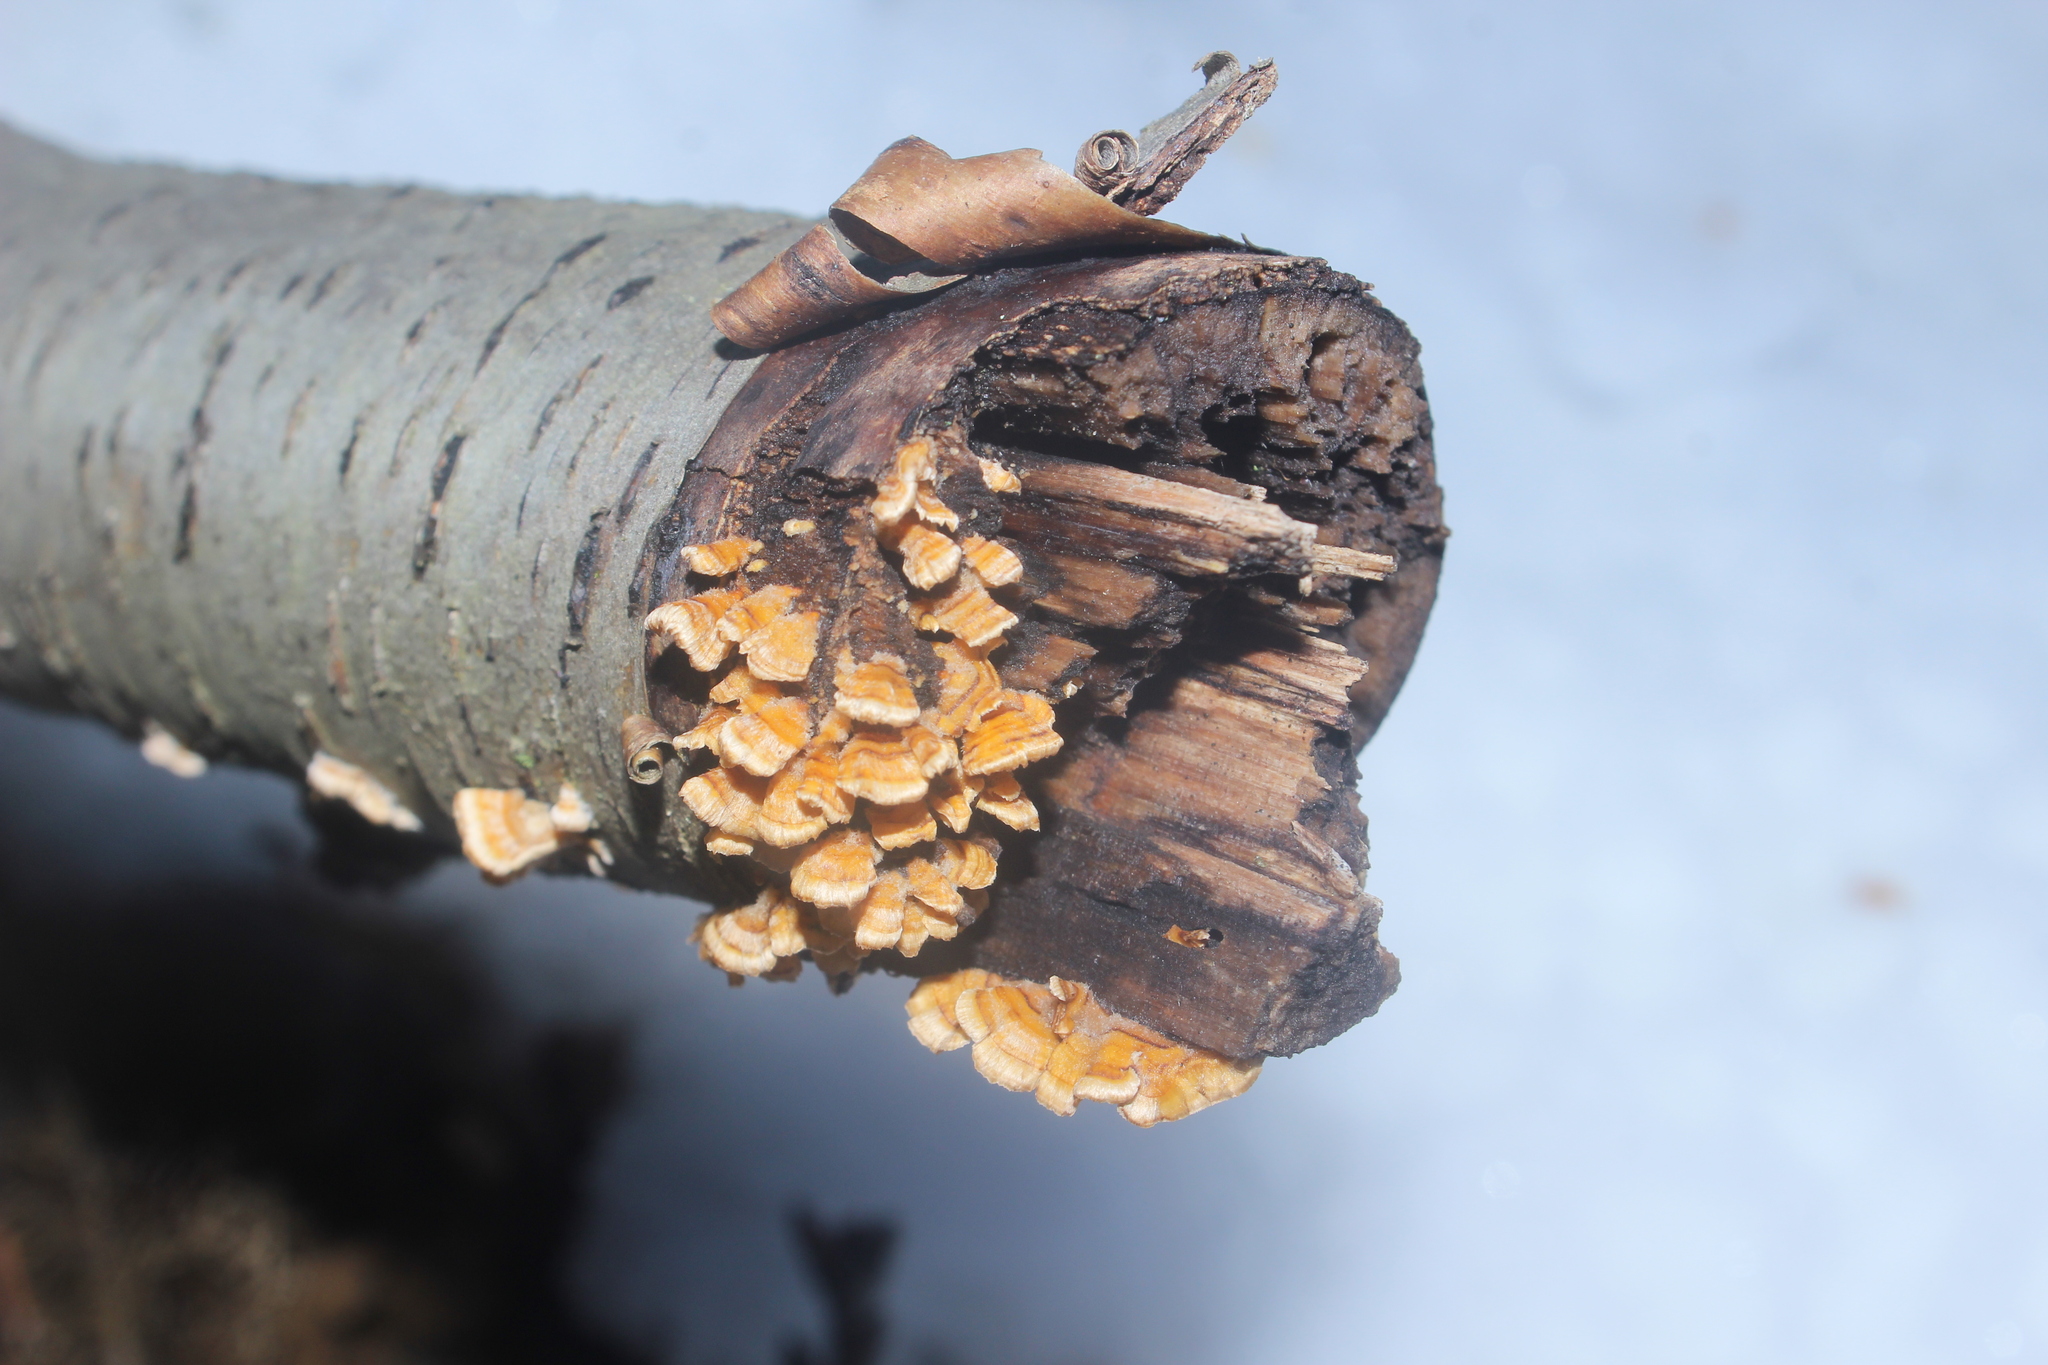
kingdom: Fungi
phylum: Basidiomycota
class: Agaricomycetes
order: Russulales
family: Stereaceae
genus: Stereum
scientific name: Stereum complicatum
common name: Crowded parchment
